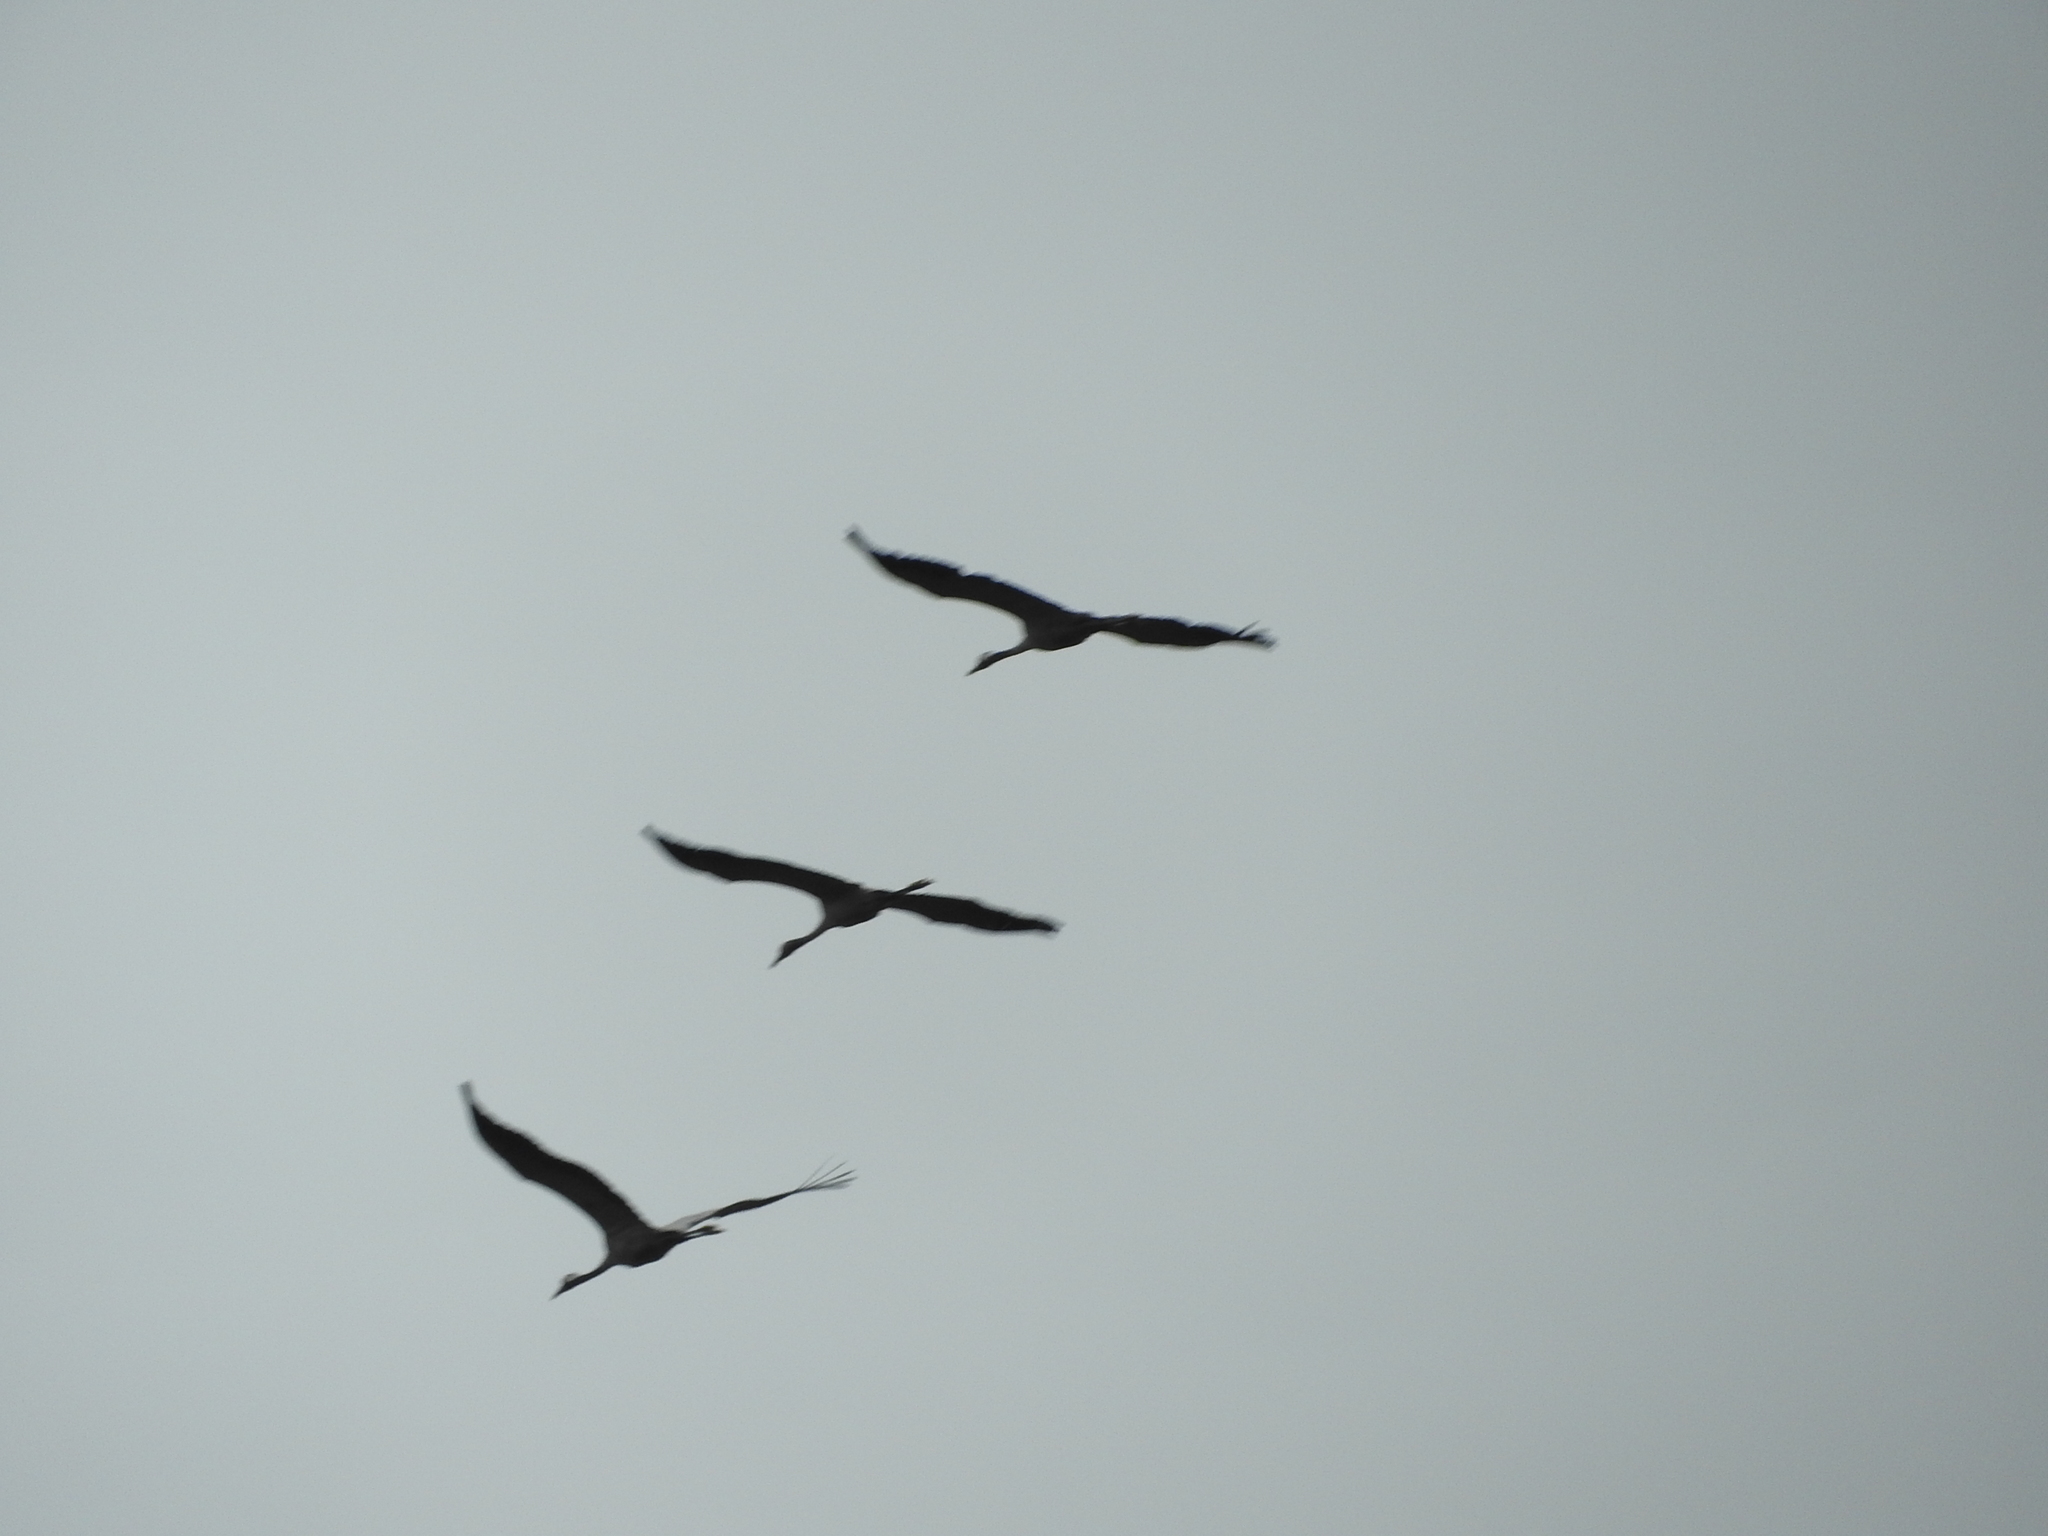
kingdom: Animalia
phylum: Chordata
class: Aves
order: Gruiformes
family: Gruidae
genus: Grus
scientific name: Grus grus
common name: Common crane
